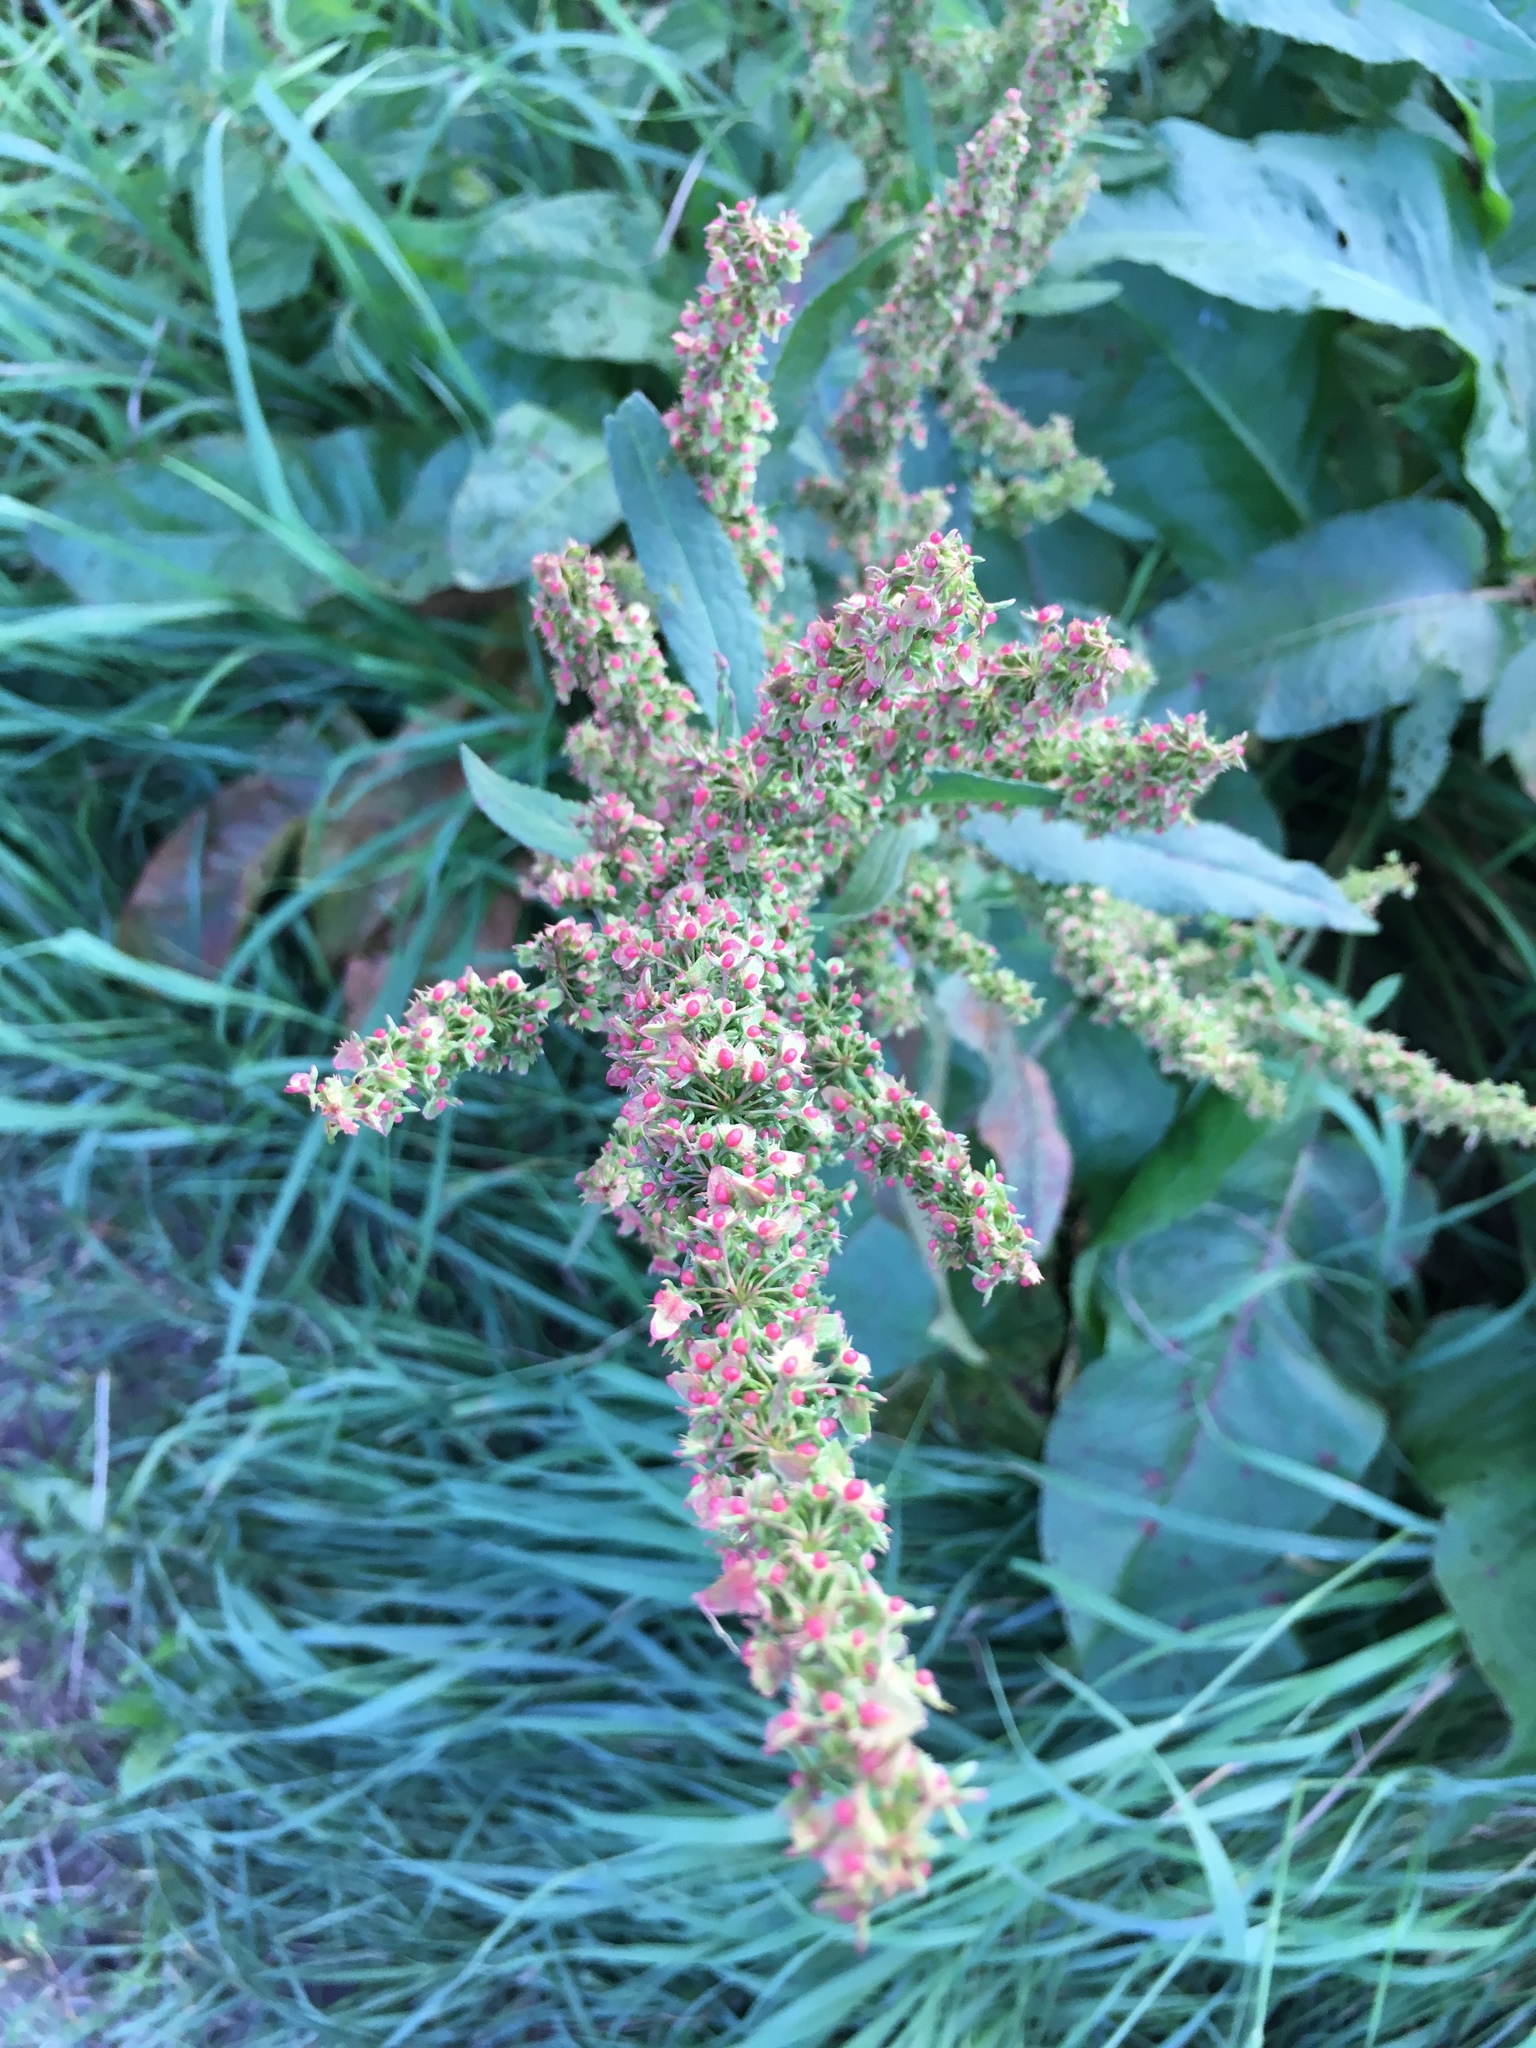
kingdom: Plantae
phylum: Tracheophyta
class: Magnoliopsida
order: Caryophyllales
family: Polygonaceae
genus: Rumex
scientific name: Rumex obtusifolius
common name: Bitter dock
